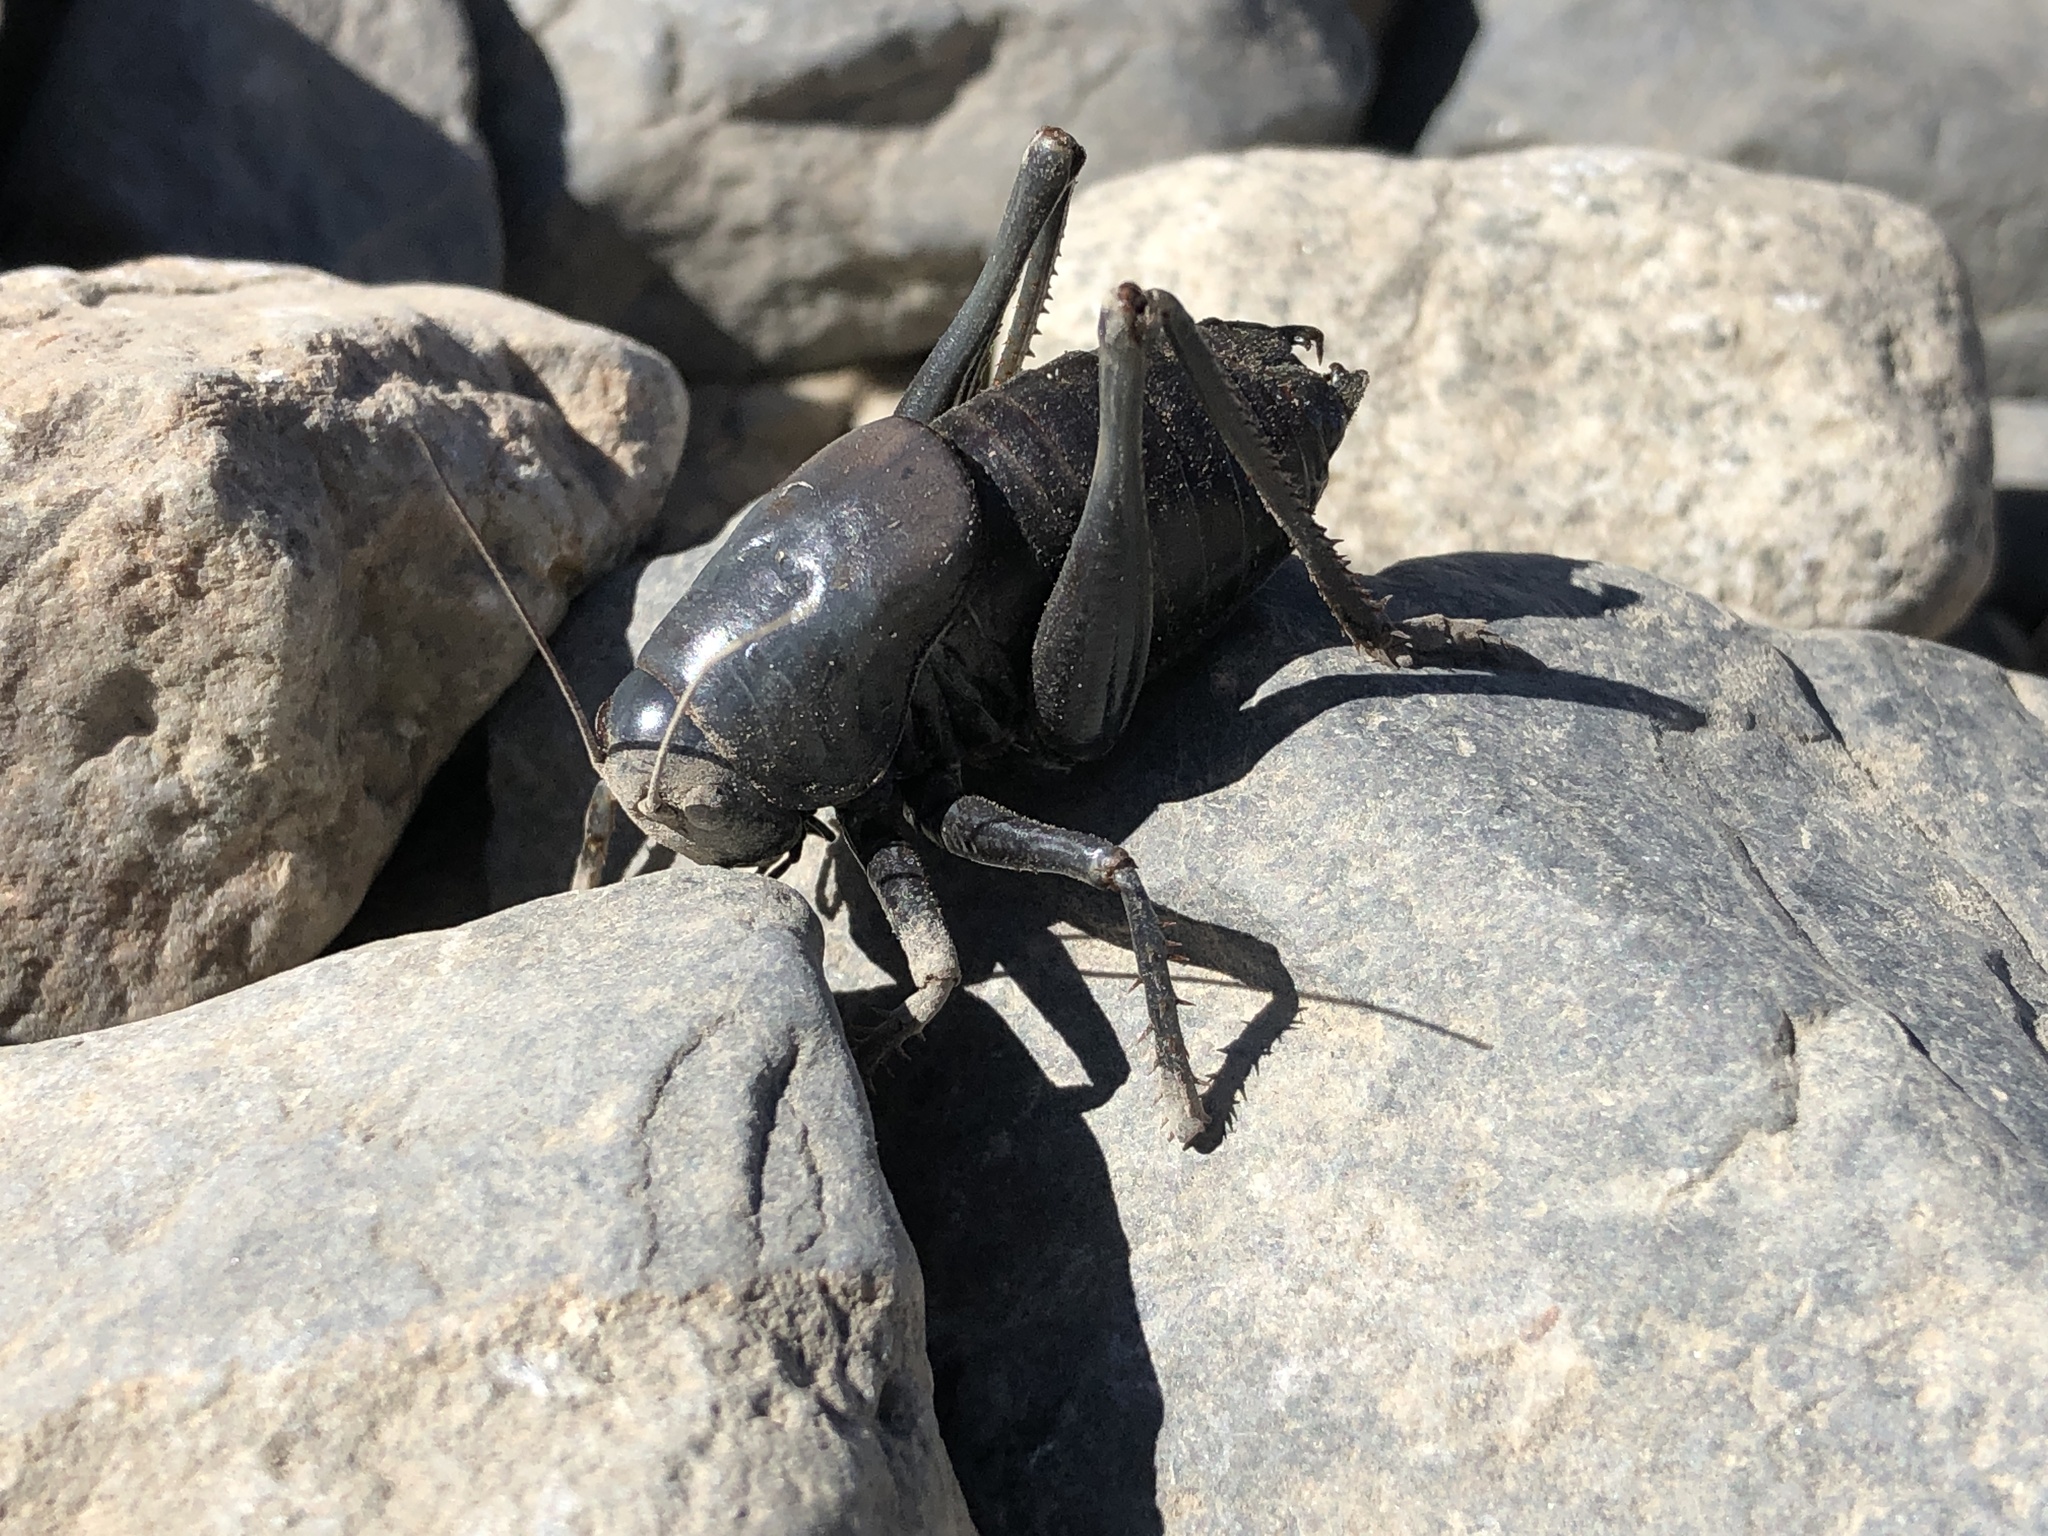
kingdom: Animalia
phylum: Arthropoda
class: Insecta
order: Orthoptera
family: Tettigoniidae
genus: Anabrus
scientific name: Anabrus simplex
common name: Mormon cricket
